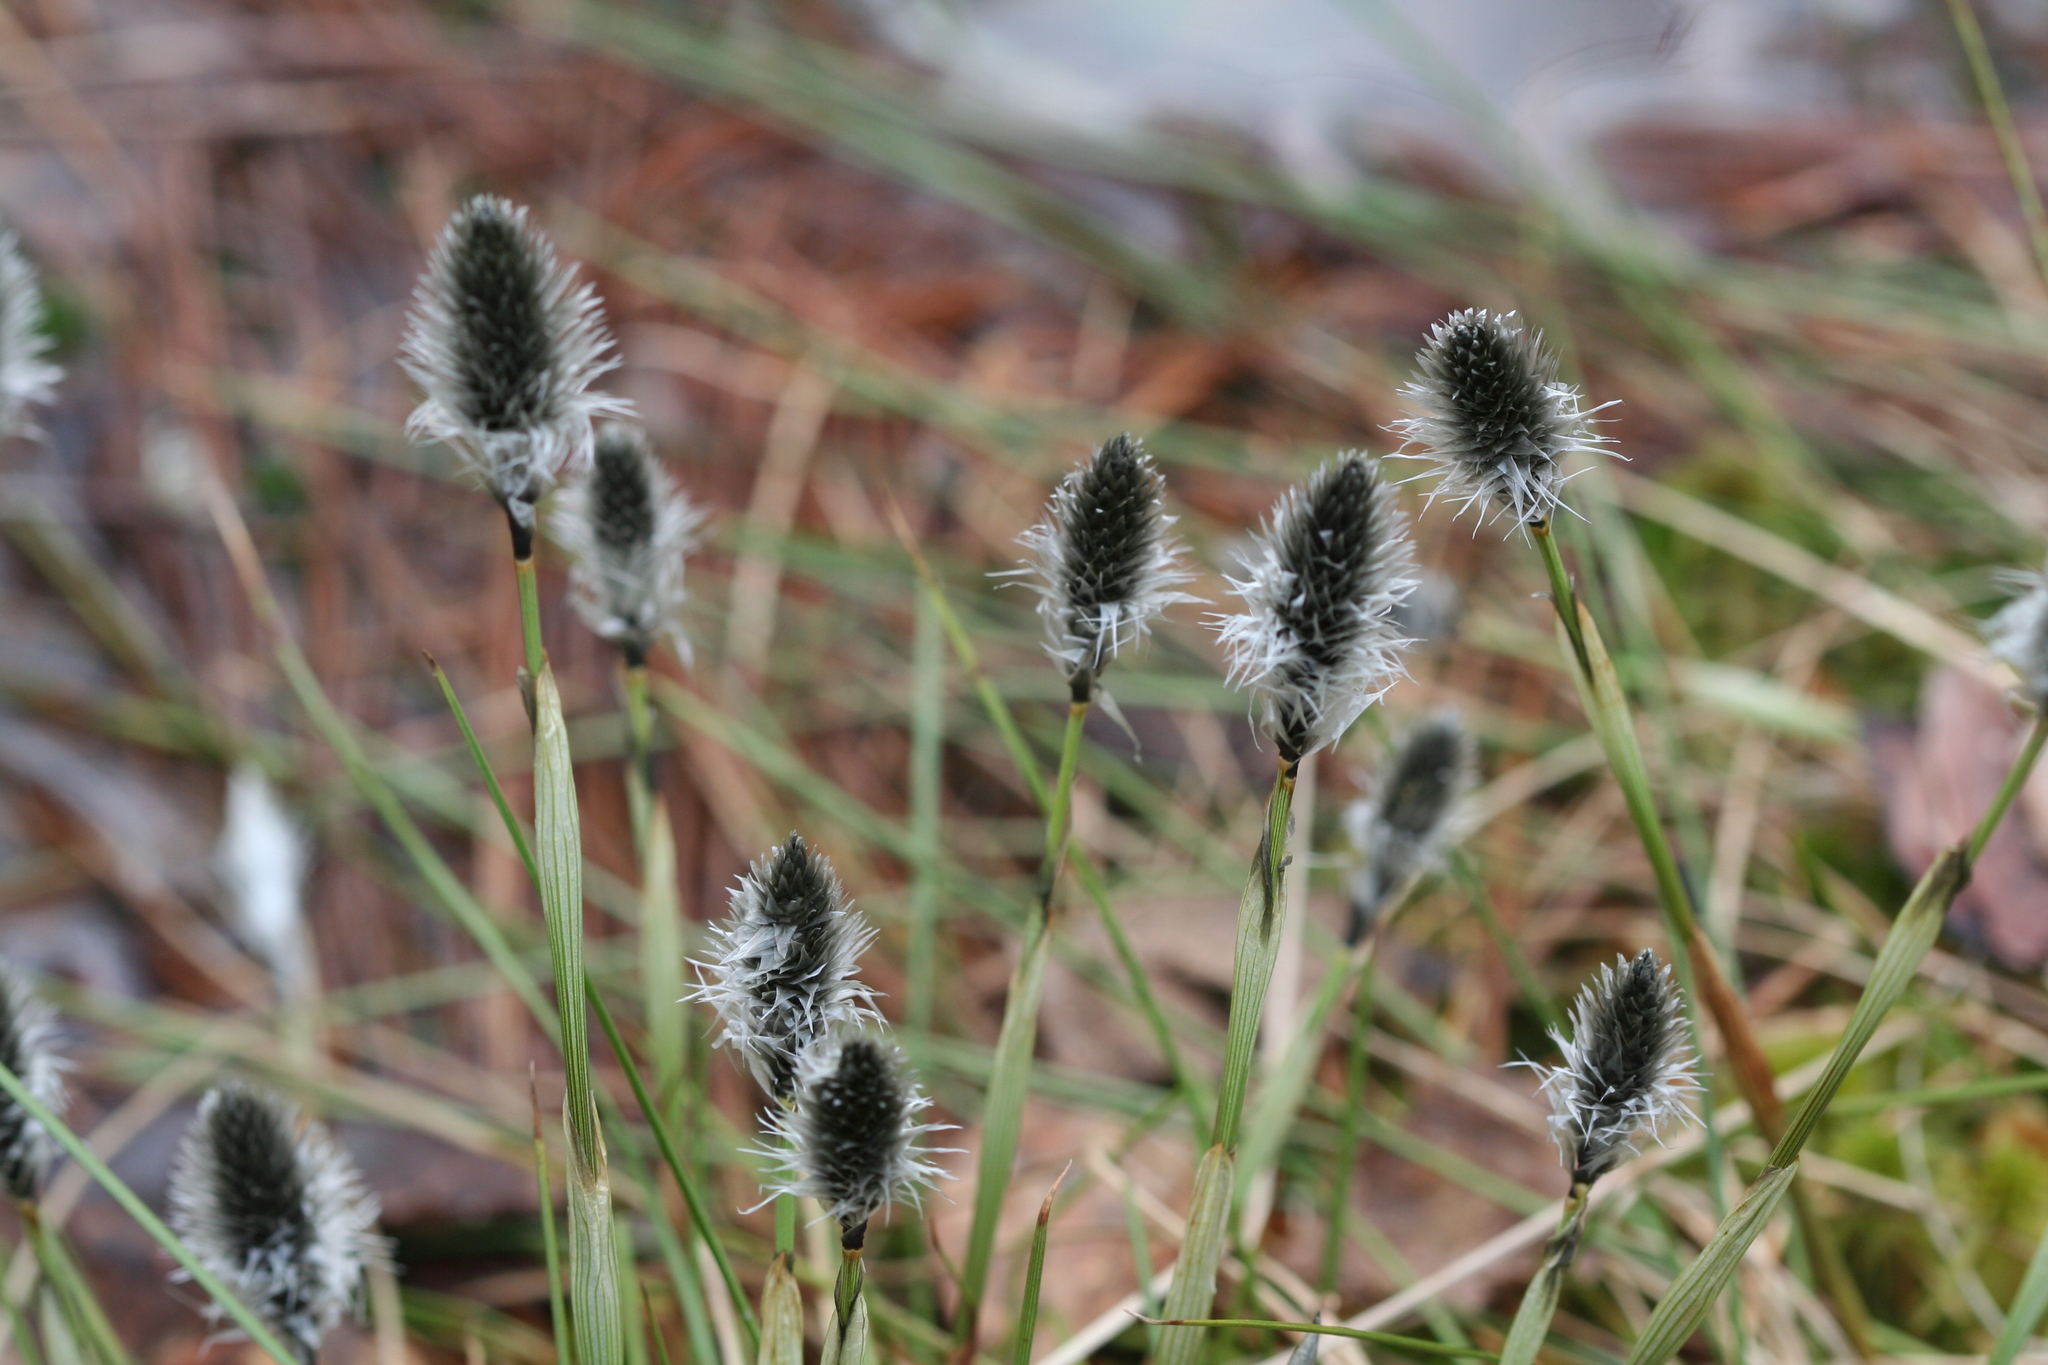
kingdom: Plantae
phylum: Tracheophyta
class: Liliopsida
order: Poales
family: Cyperaceae
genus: Eriophorum
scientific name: Eriophorum vaginatum
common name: Hare's-tail cottongrass
